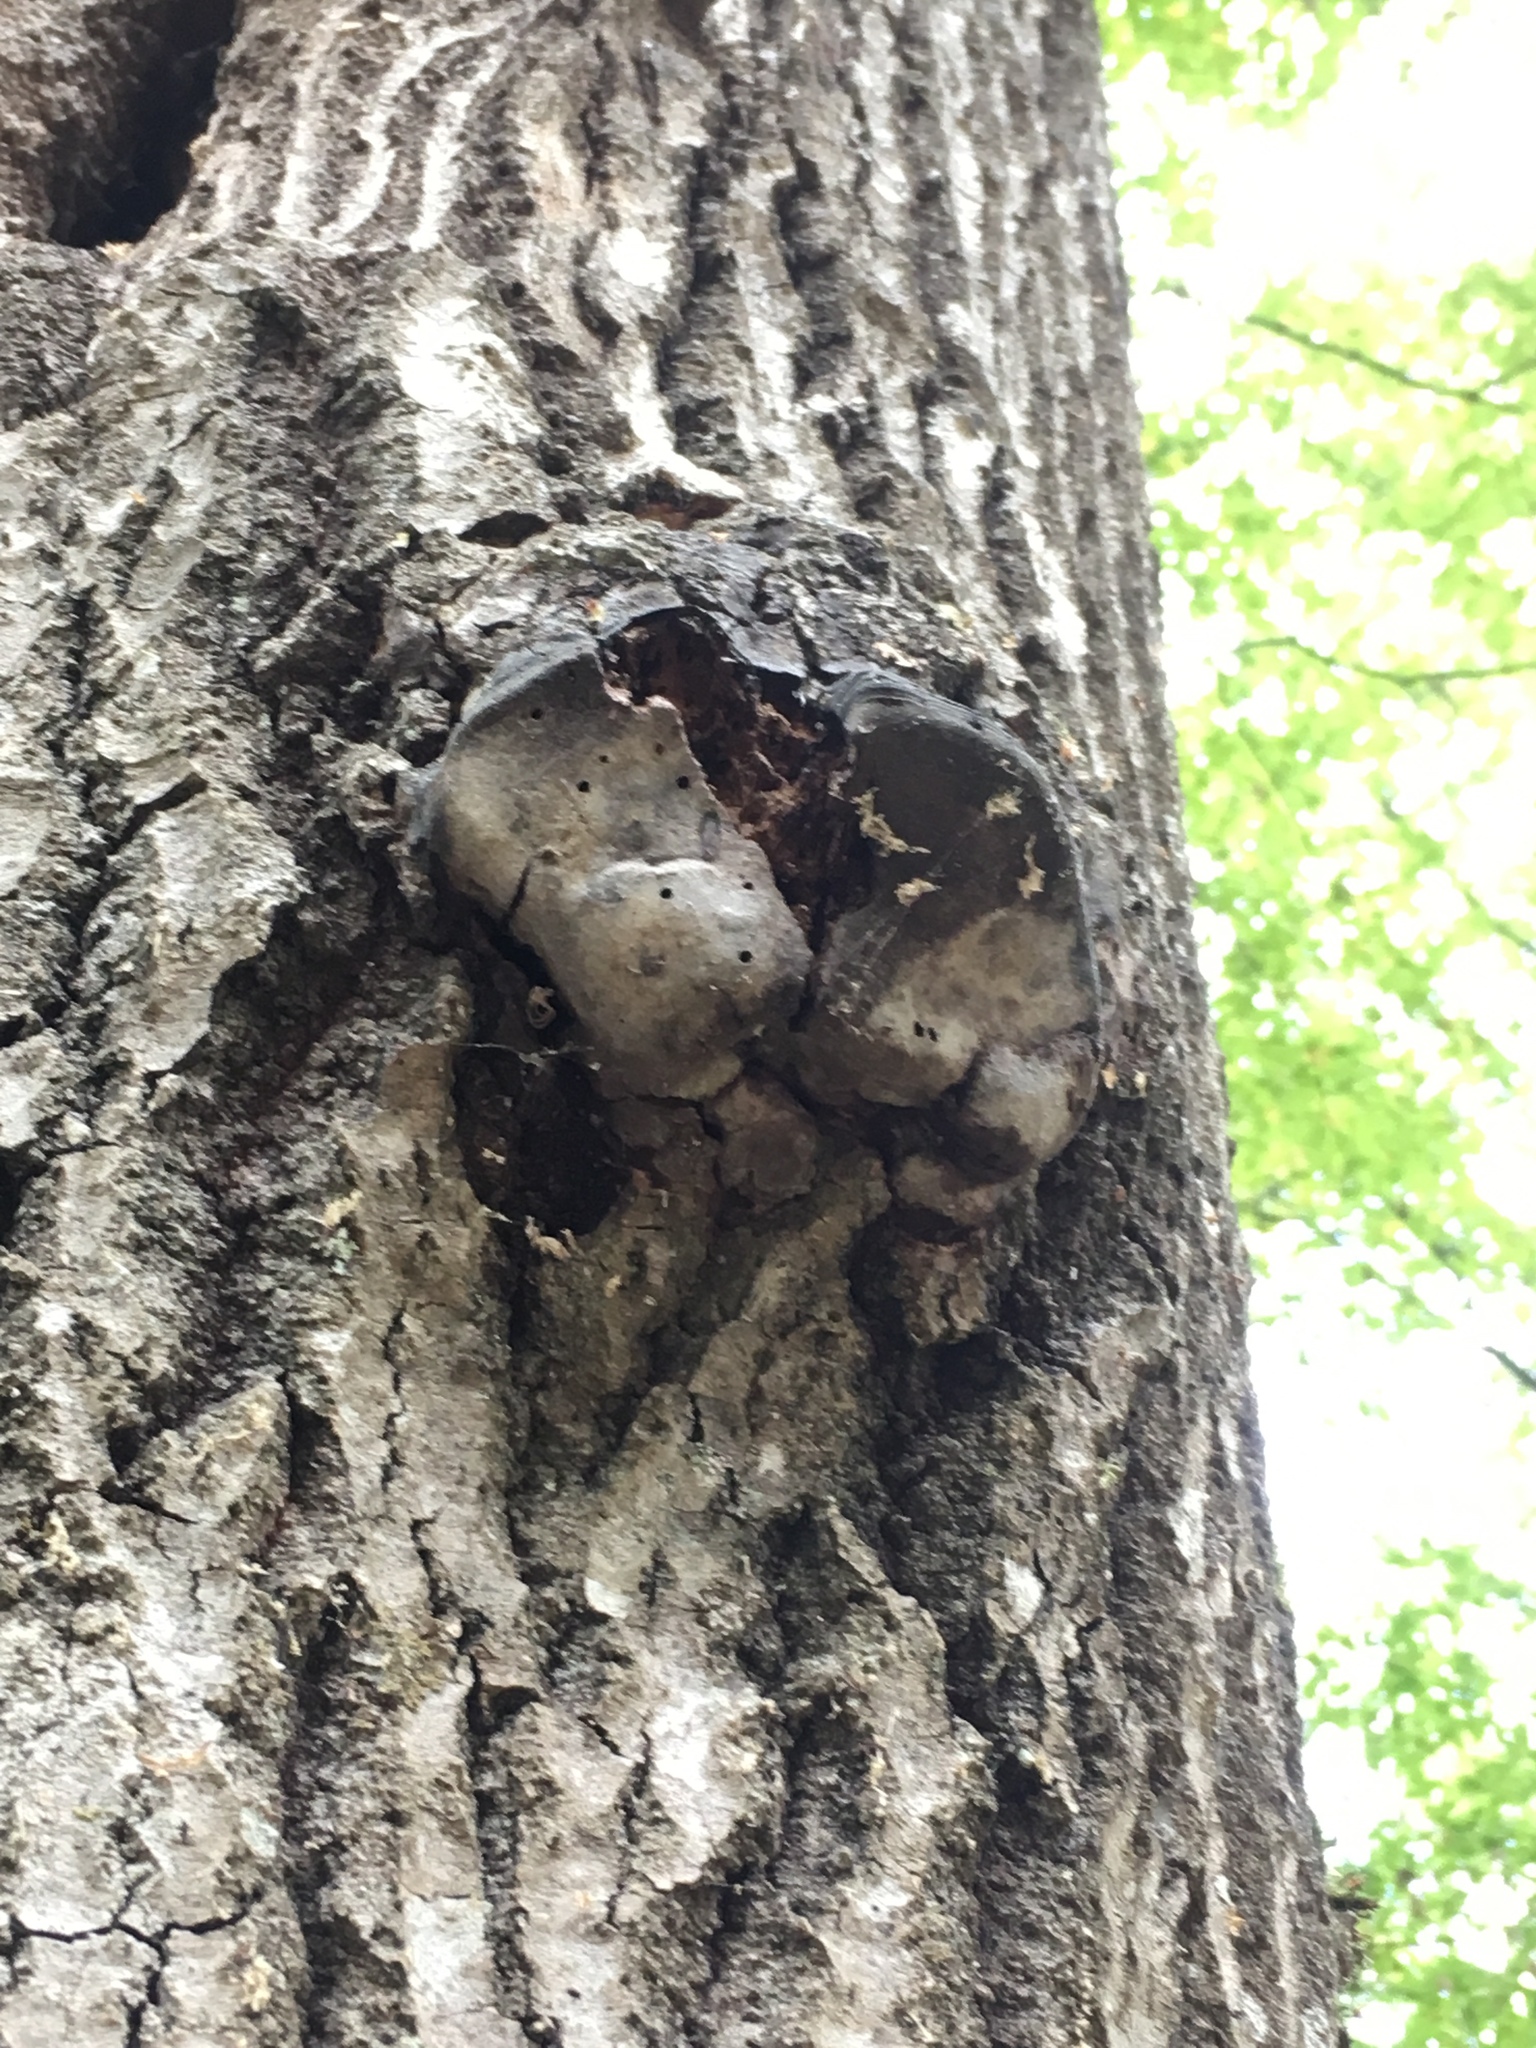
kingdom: Fungi
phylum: Basidiomycota
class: Agaricomycetes
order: Hymenochaetales
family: Hymenochaetaceae
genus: Phellinus
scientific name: Phellinus tremulae
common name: Aspen bracket
